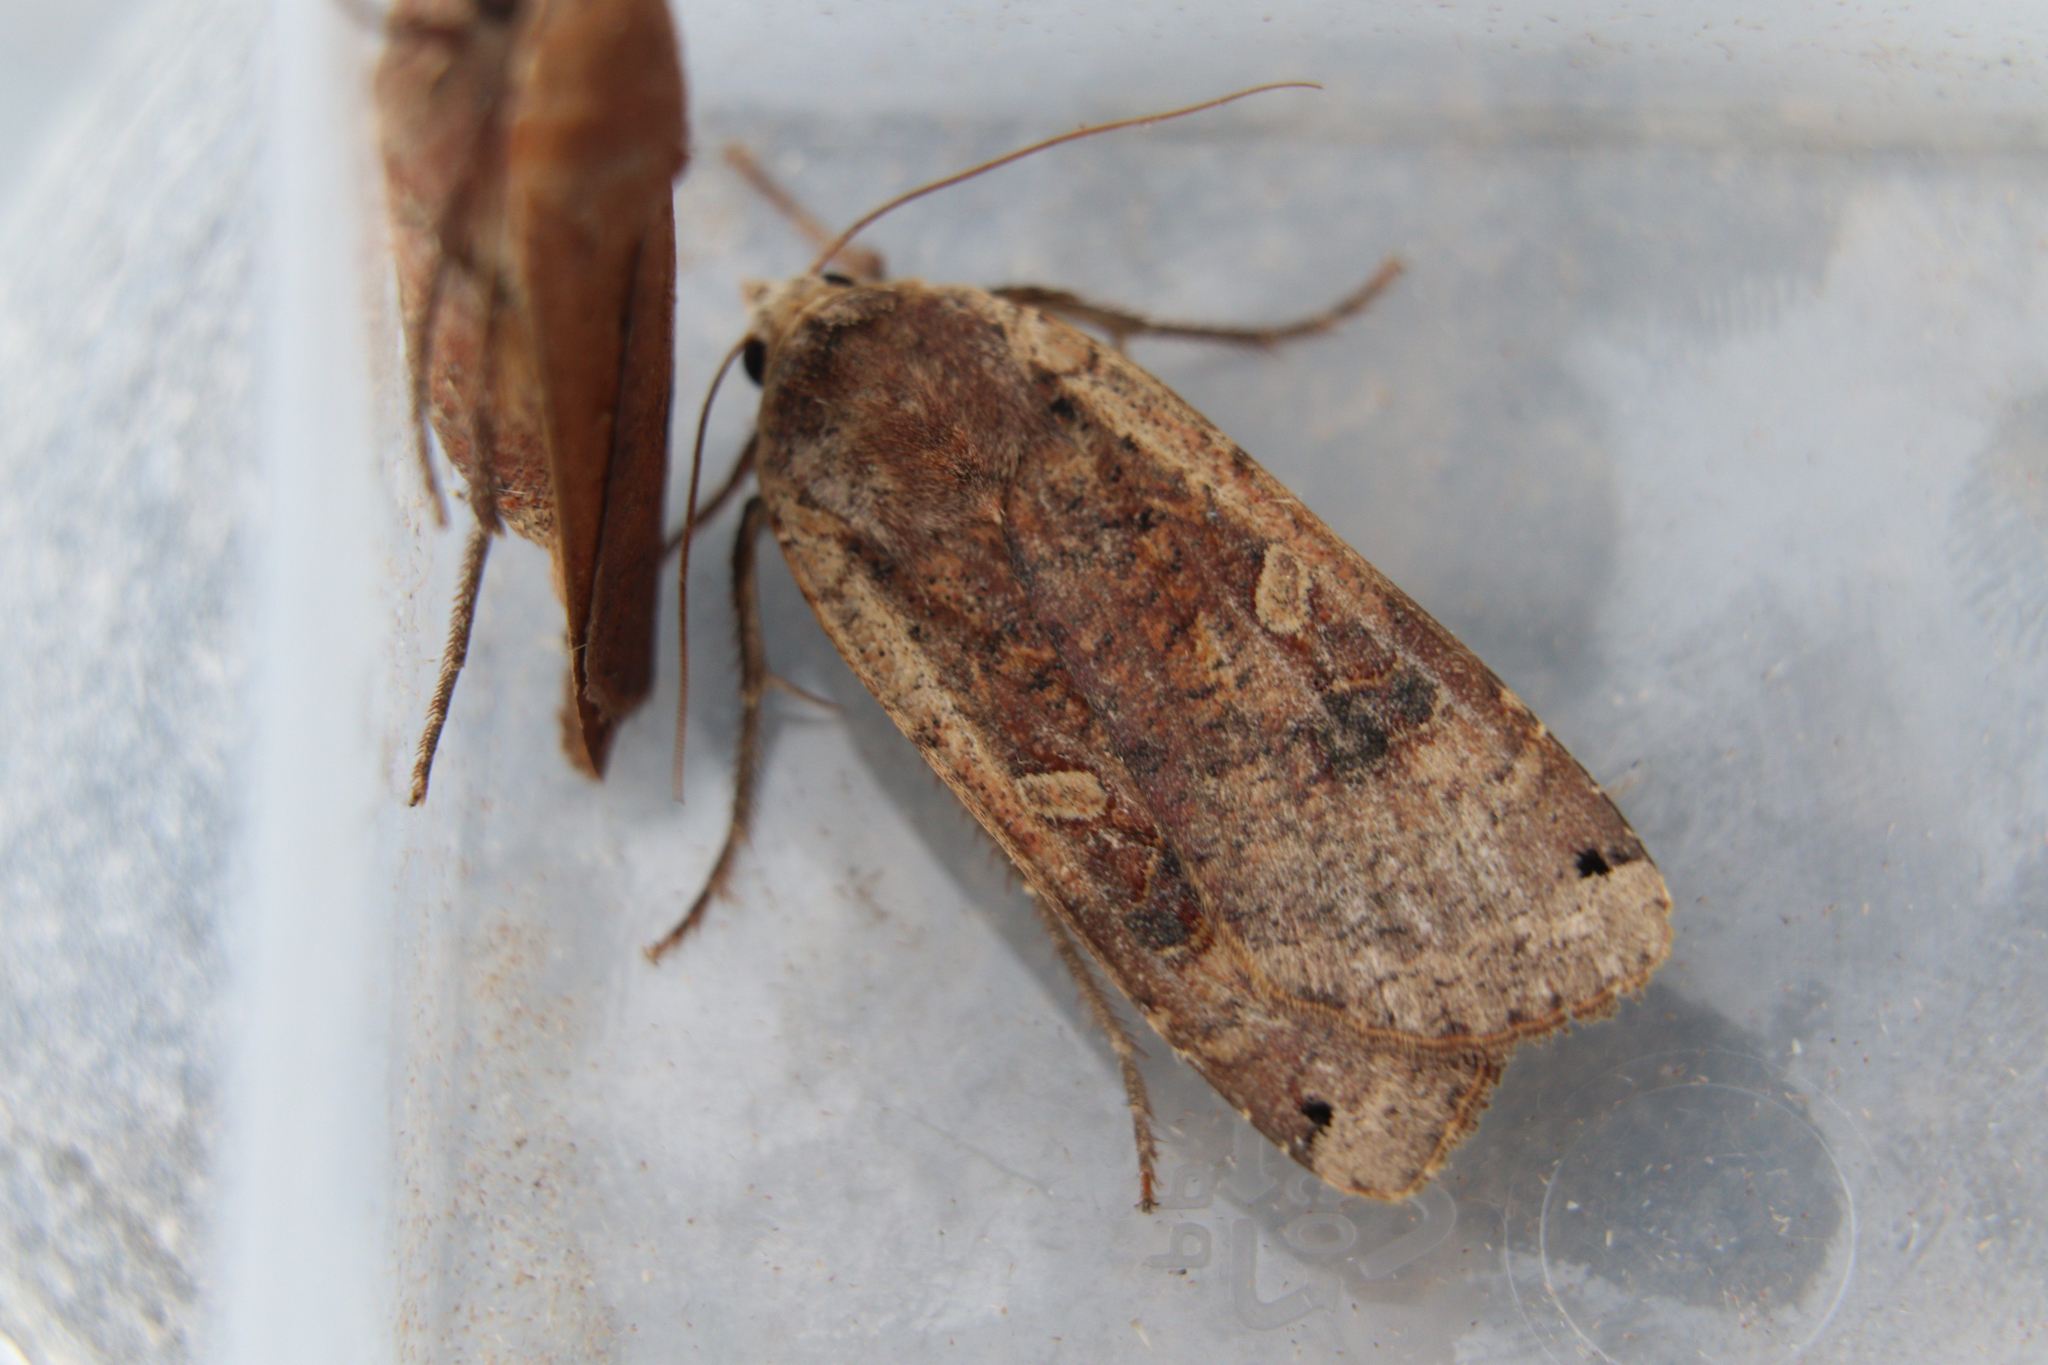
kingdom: Animalia
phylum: Arthropoda
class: Insecta
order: Lepidoptera
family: Noctuidae
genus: Noctua
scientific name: Noctua pronuba
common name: Large yellow underwing
